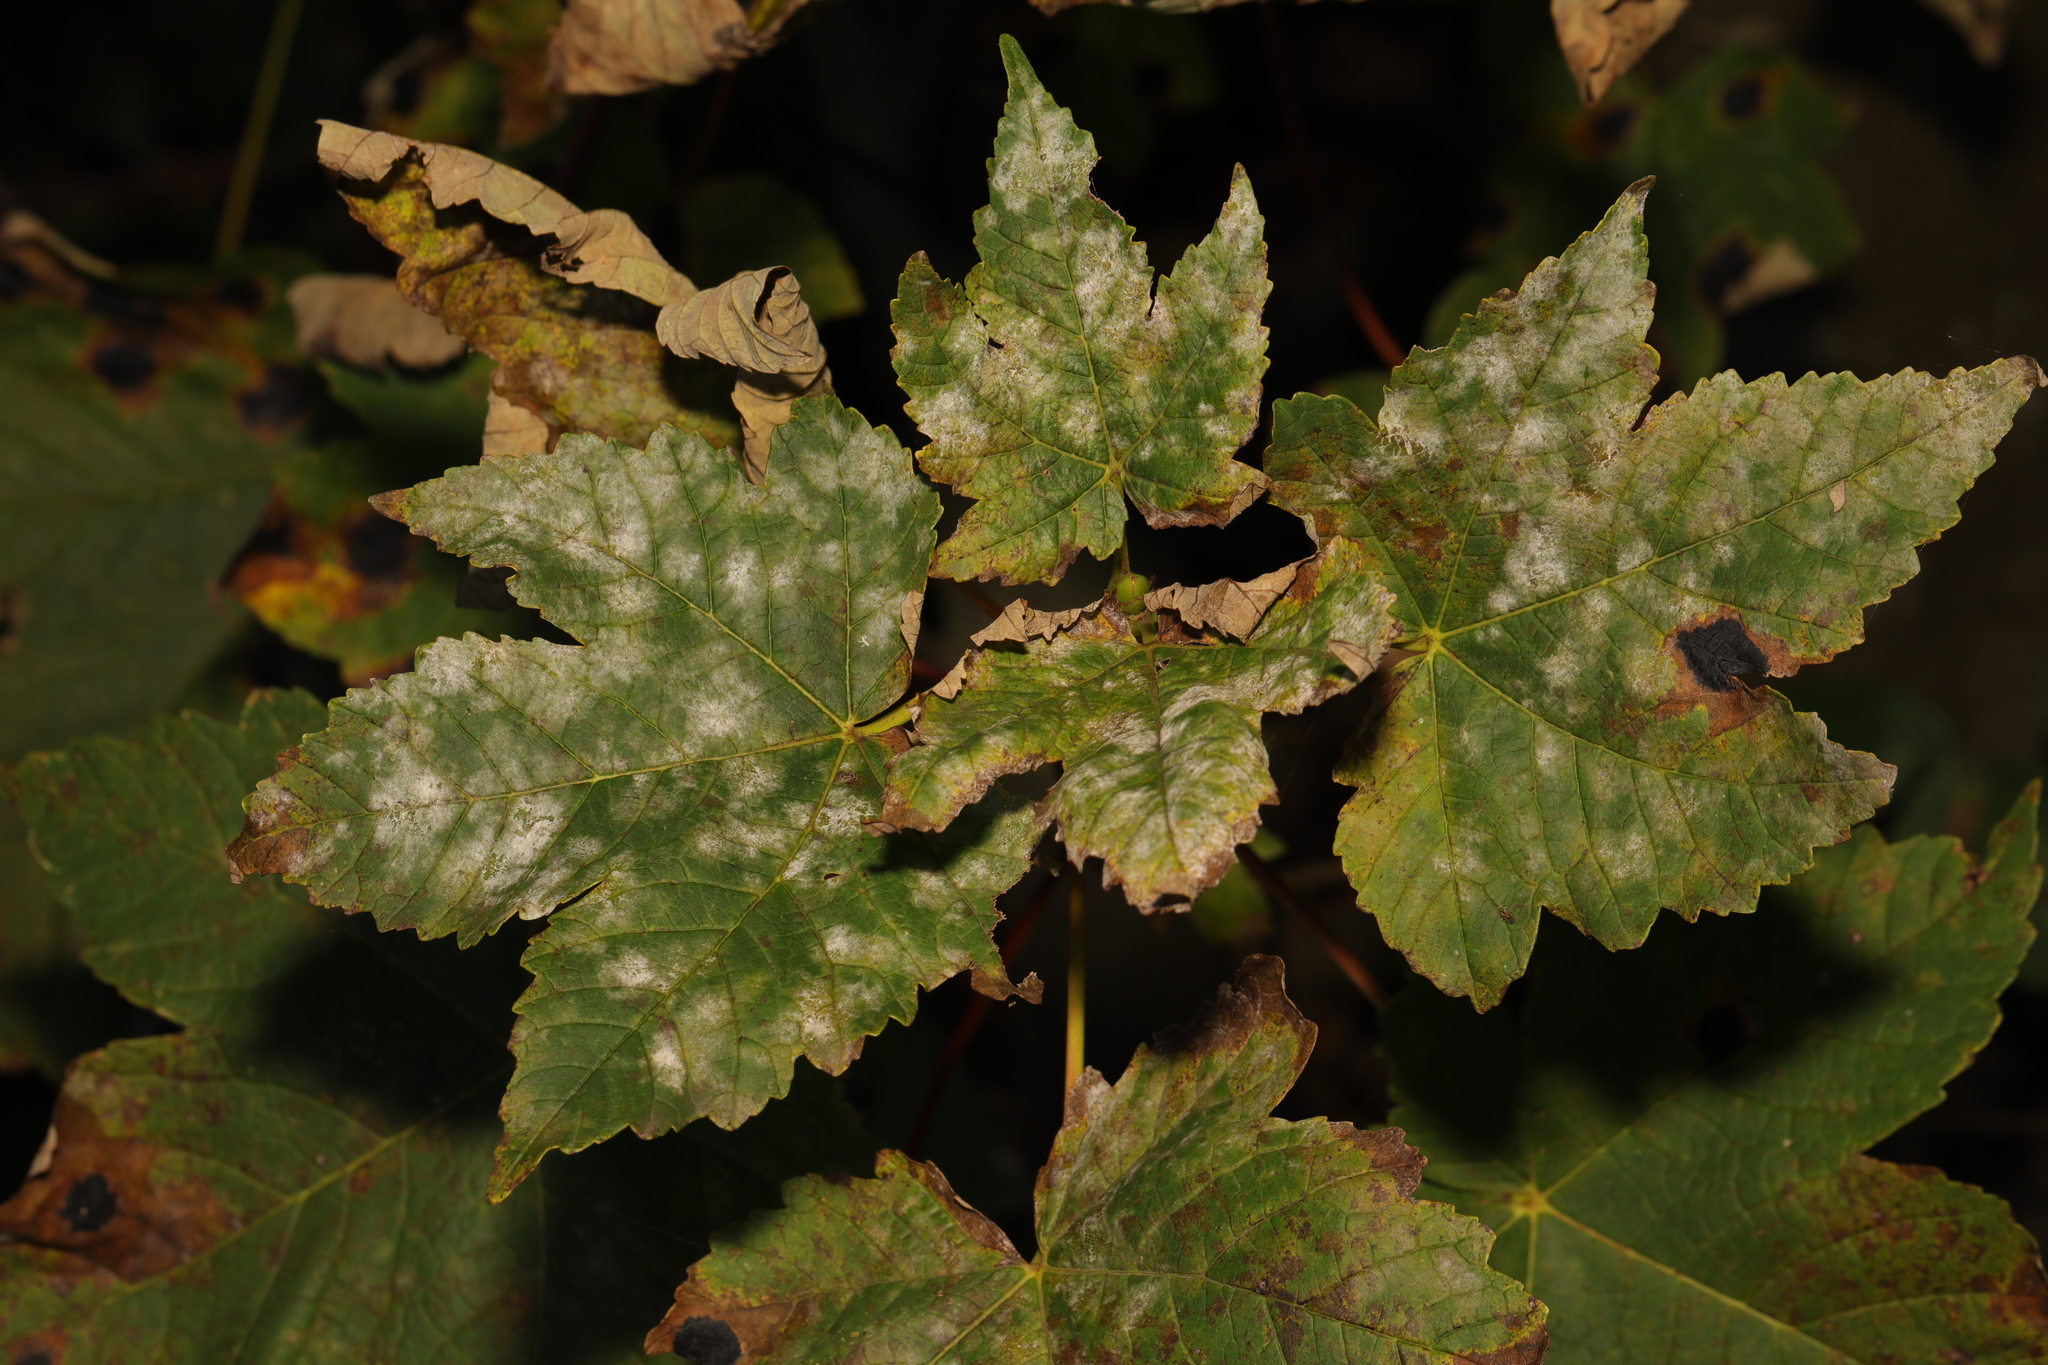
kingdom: Plantae
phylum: Tracheophyta
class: Magnoliopsida
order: Sapindales
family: Sapindaceae
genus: Acer
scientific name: Acer pseudoplatanus
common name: Sycamore
